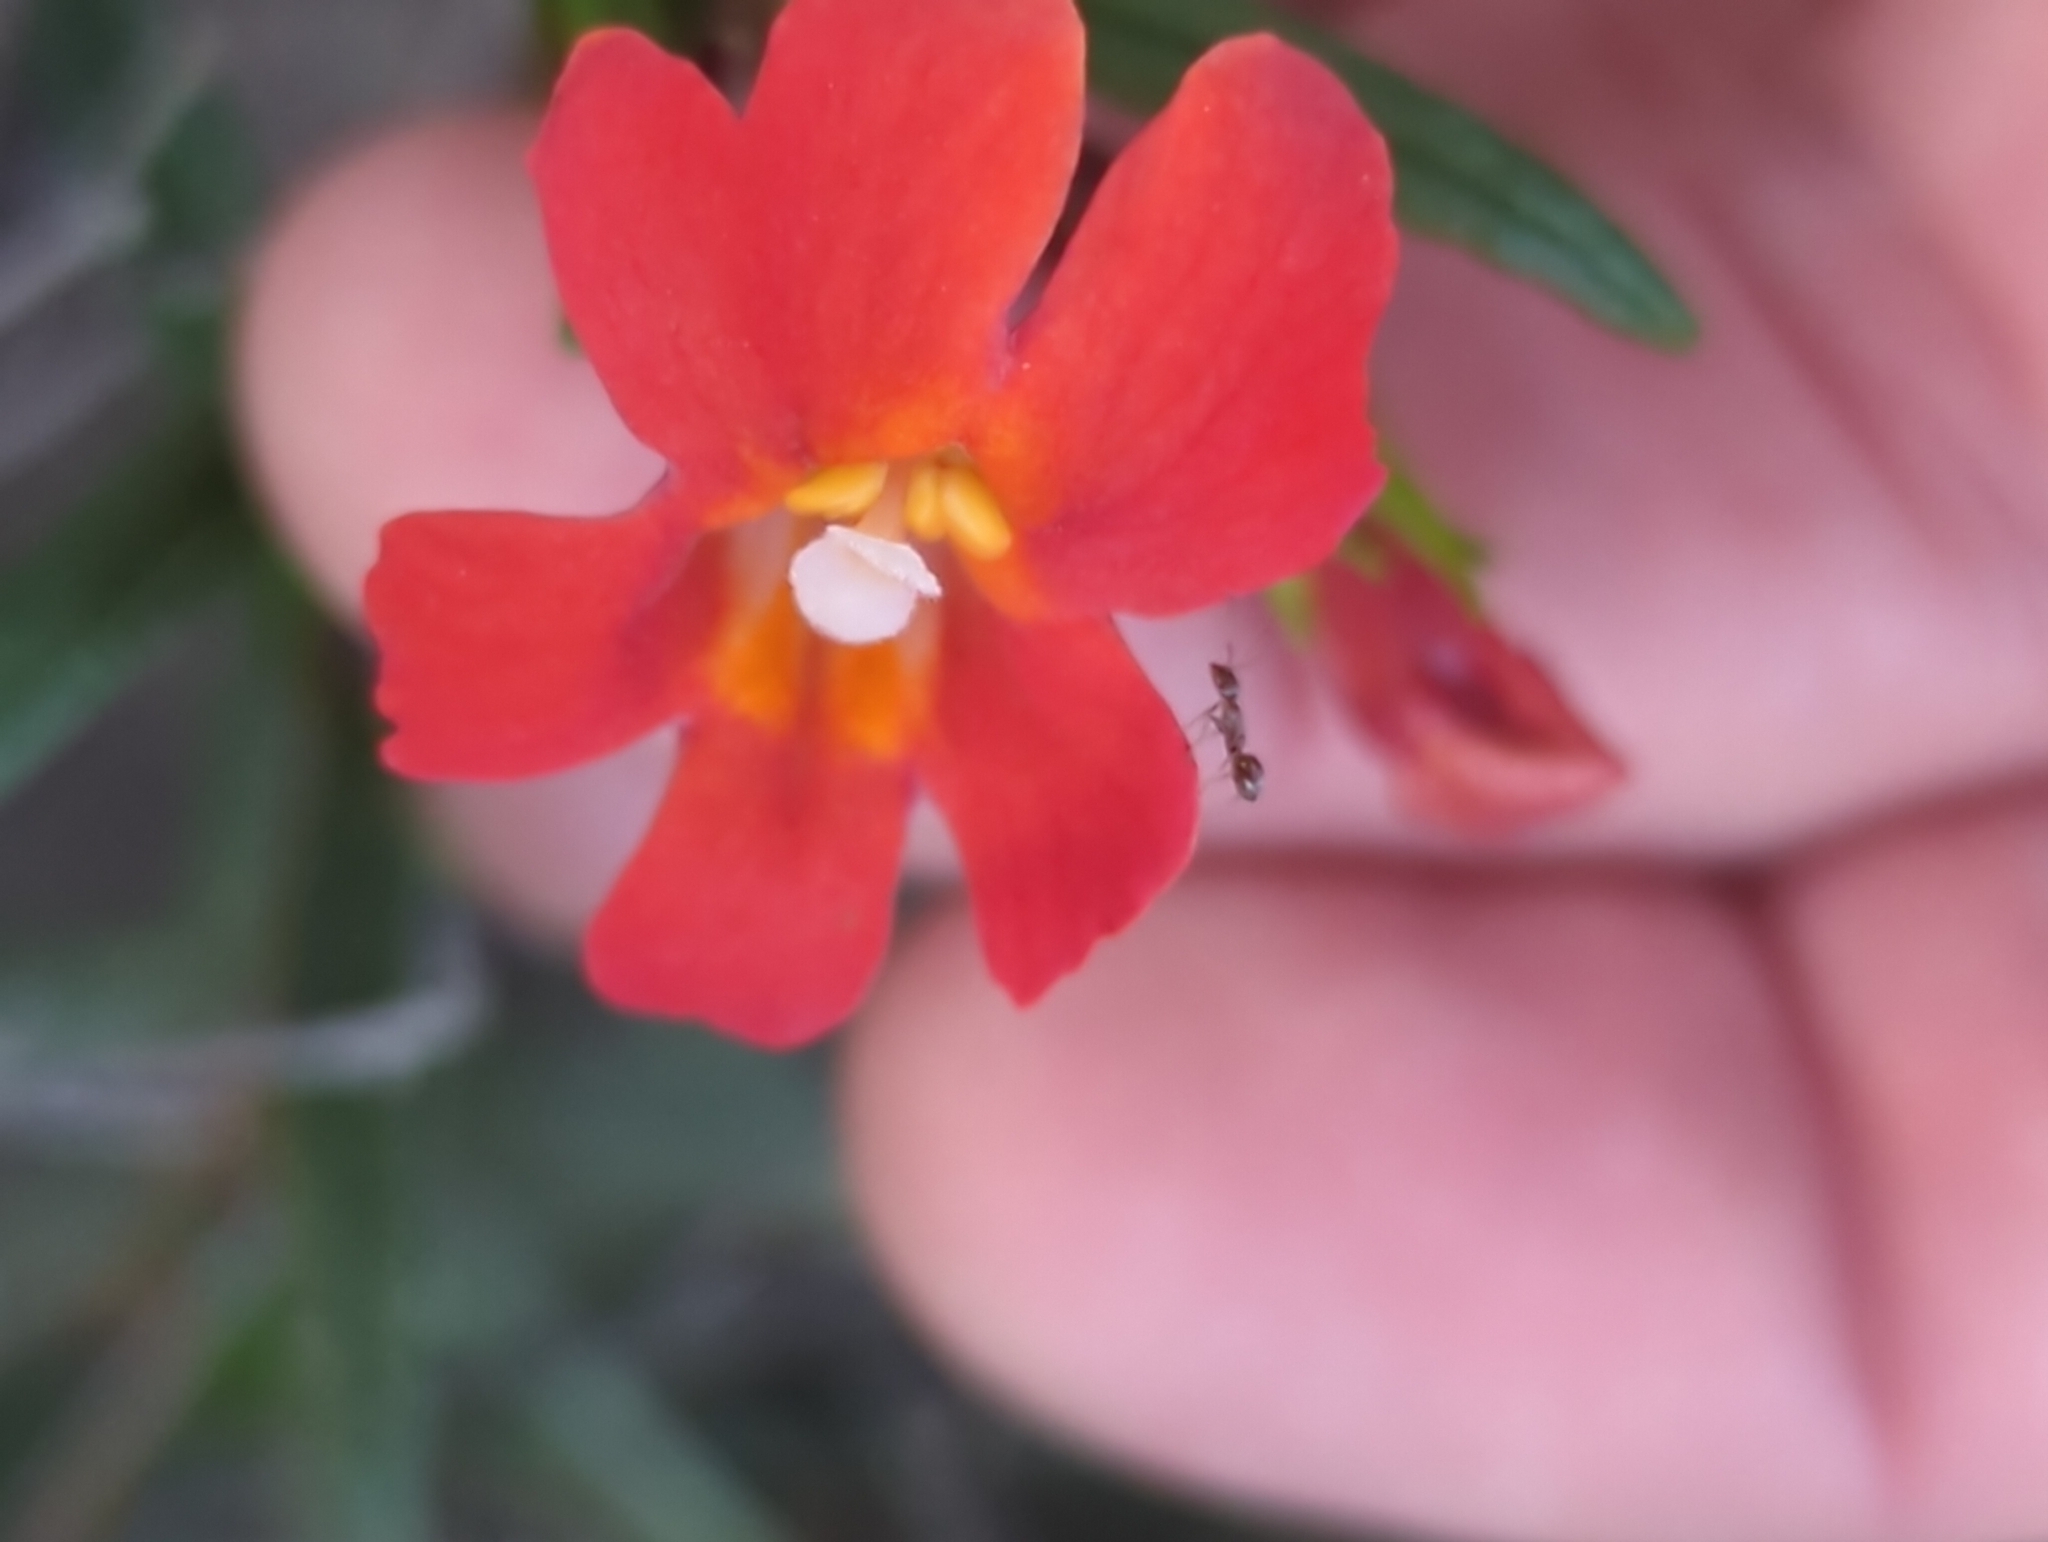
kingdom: Plantae
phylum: Tracheophyta
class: Magnoliopsida
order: Lamiales
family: Phrymaceae
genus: Diplacus
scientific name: Diplacus puniceus
